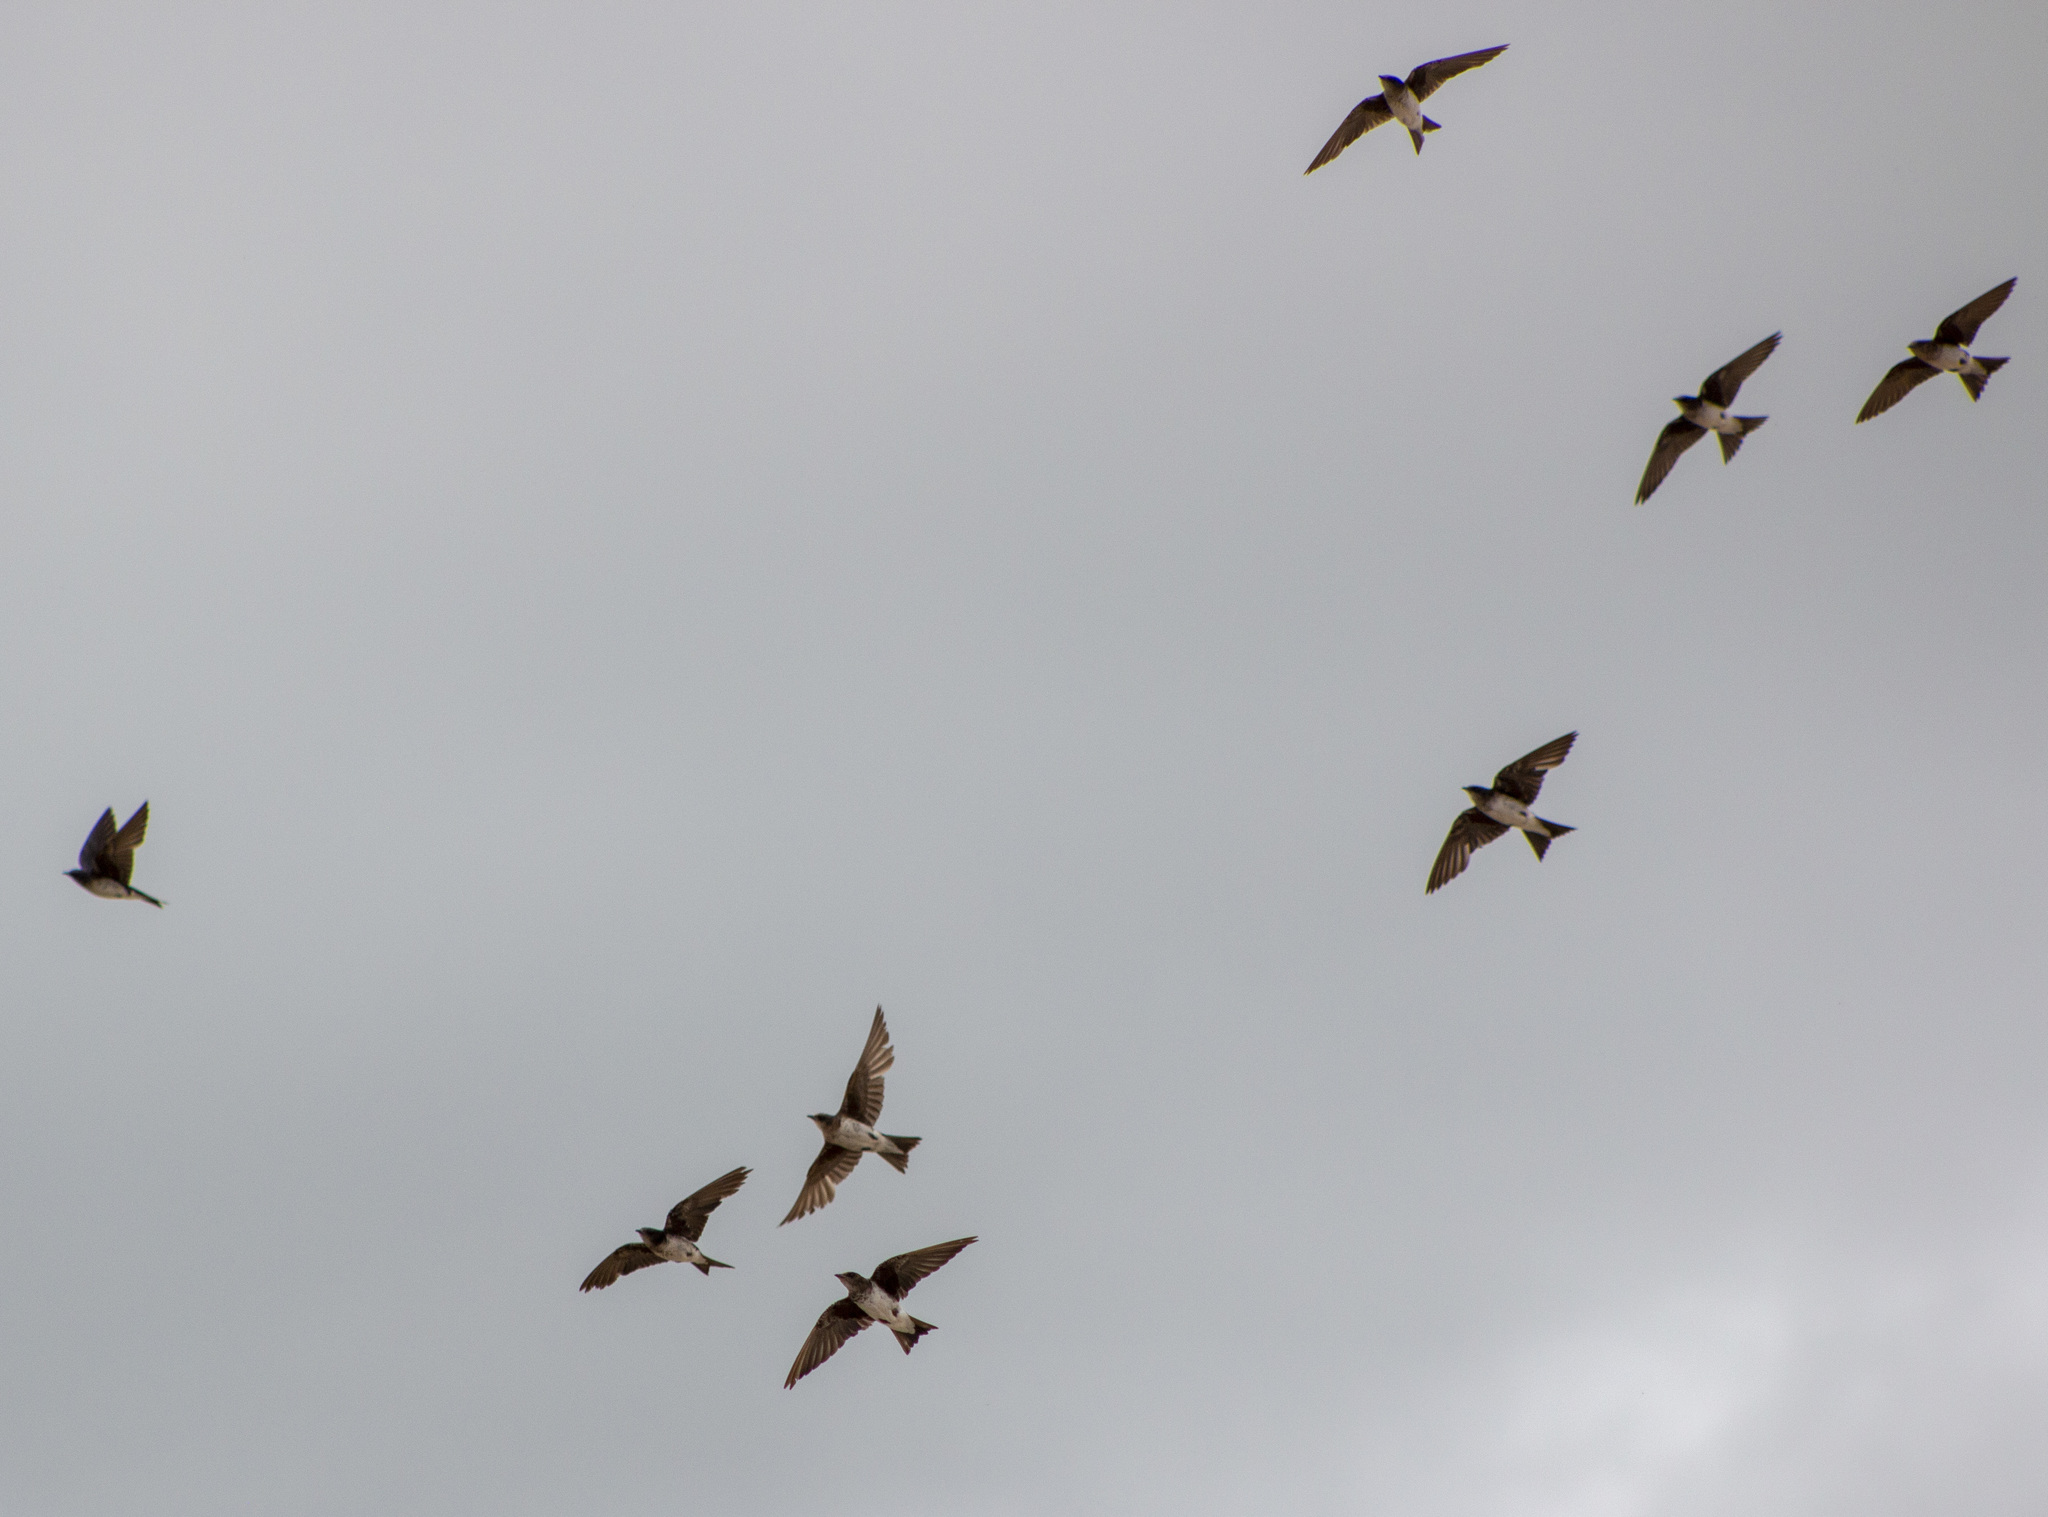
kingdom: Animalia
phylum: Chordata
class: Aves
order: Passeriformes
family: Hirundinidae
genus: Progne
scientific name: Progne chalybea
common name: Grey-breasted martin
